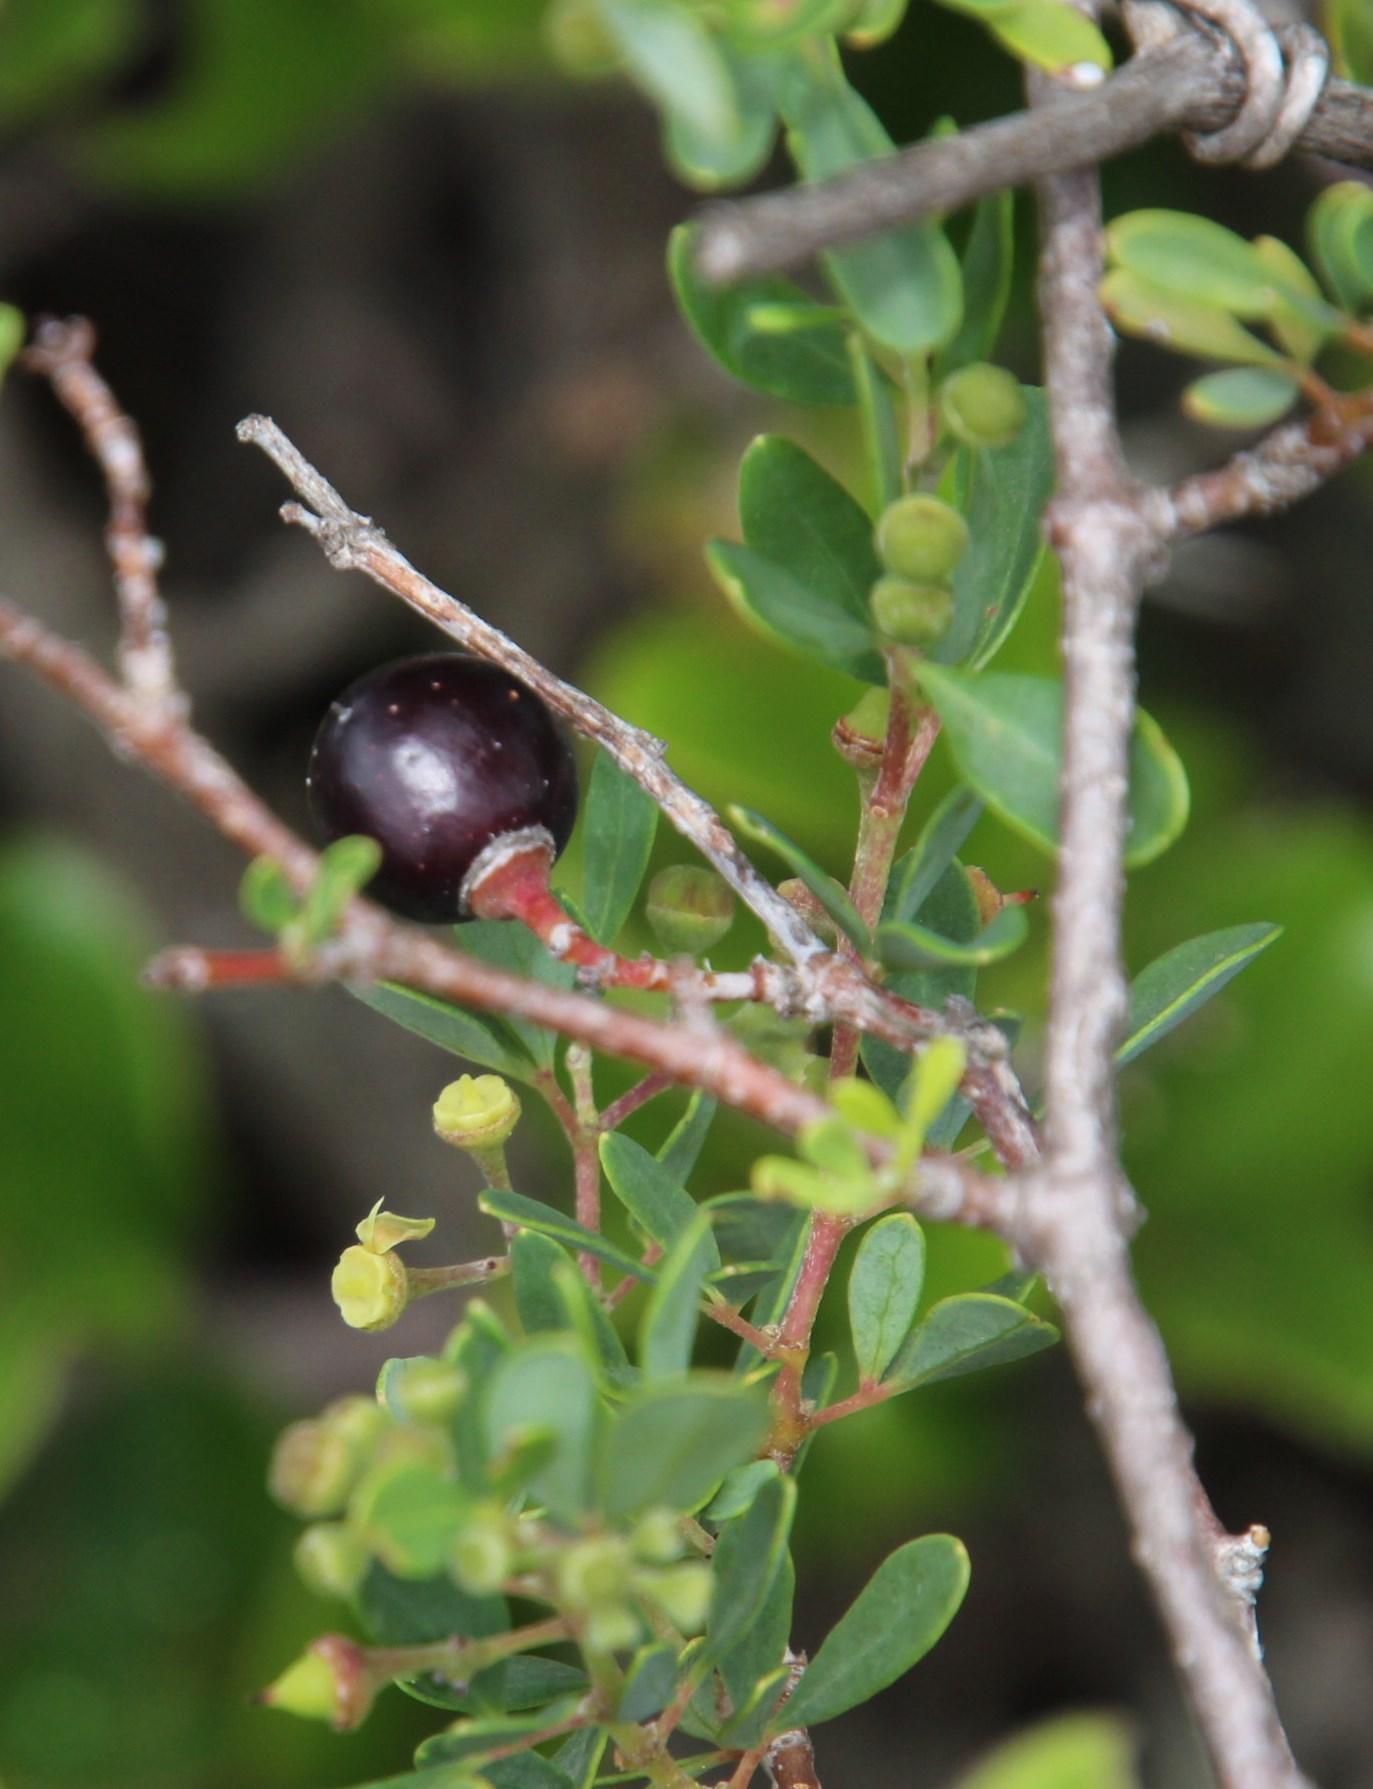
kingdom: Plantae
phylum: Tracheophyta
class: Magnoliopsida
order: Vitales
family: Vitaceae
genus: Rhoicissus
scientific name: Rhoicissus tridentata
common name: Common forest grape
